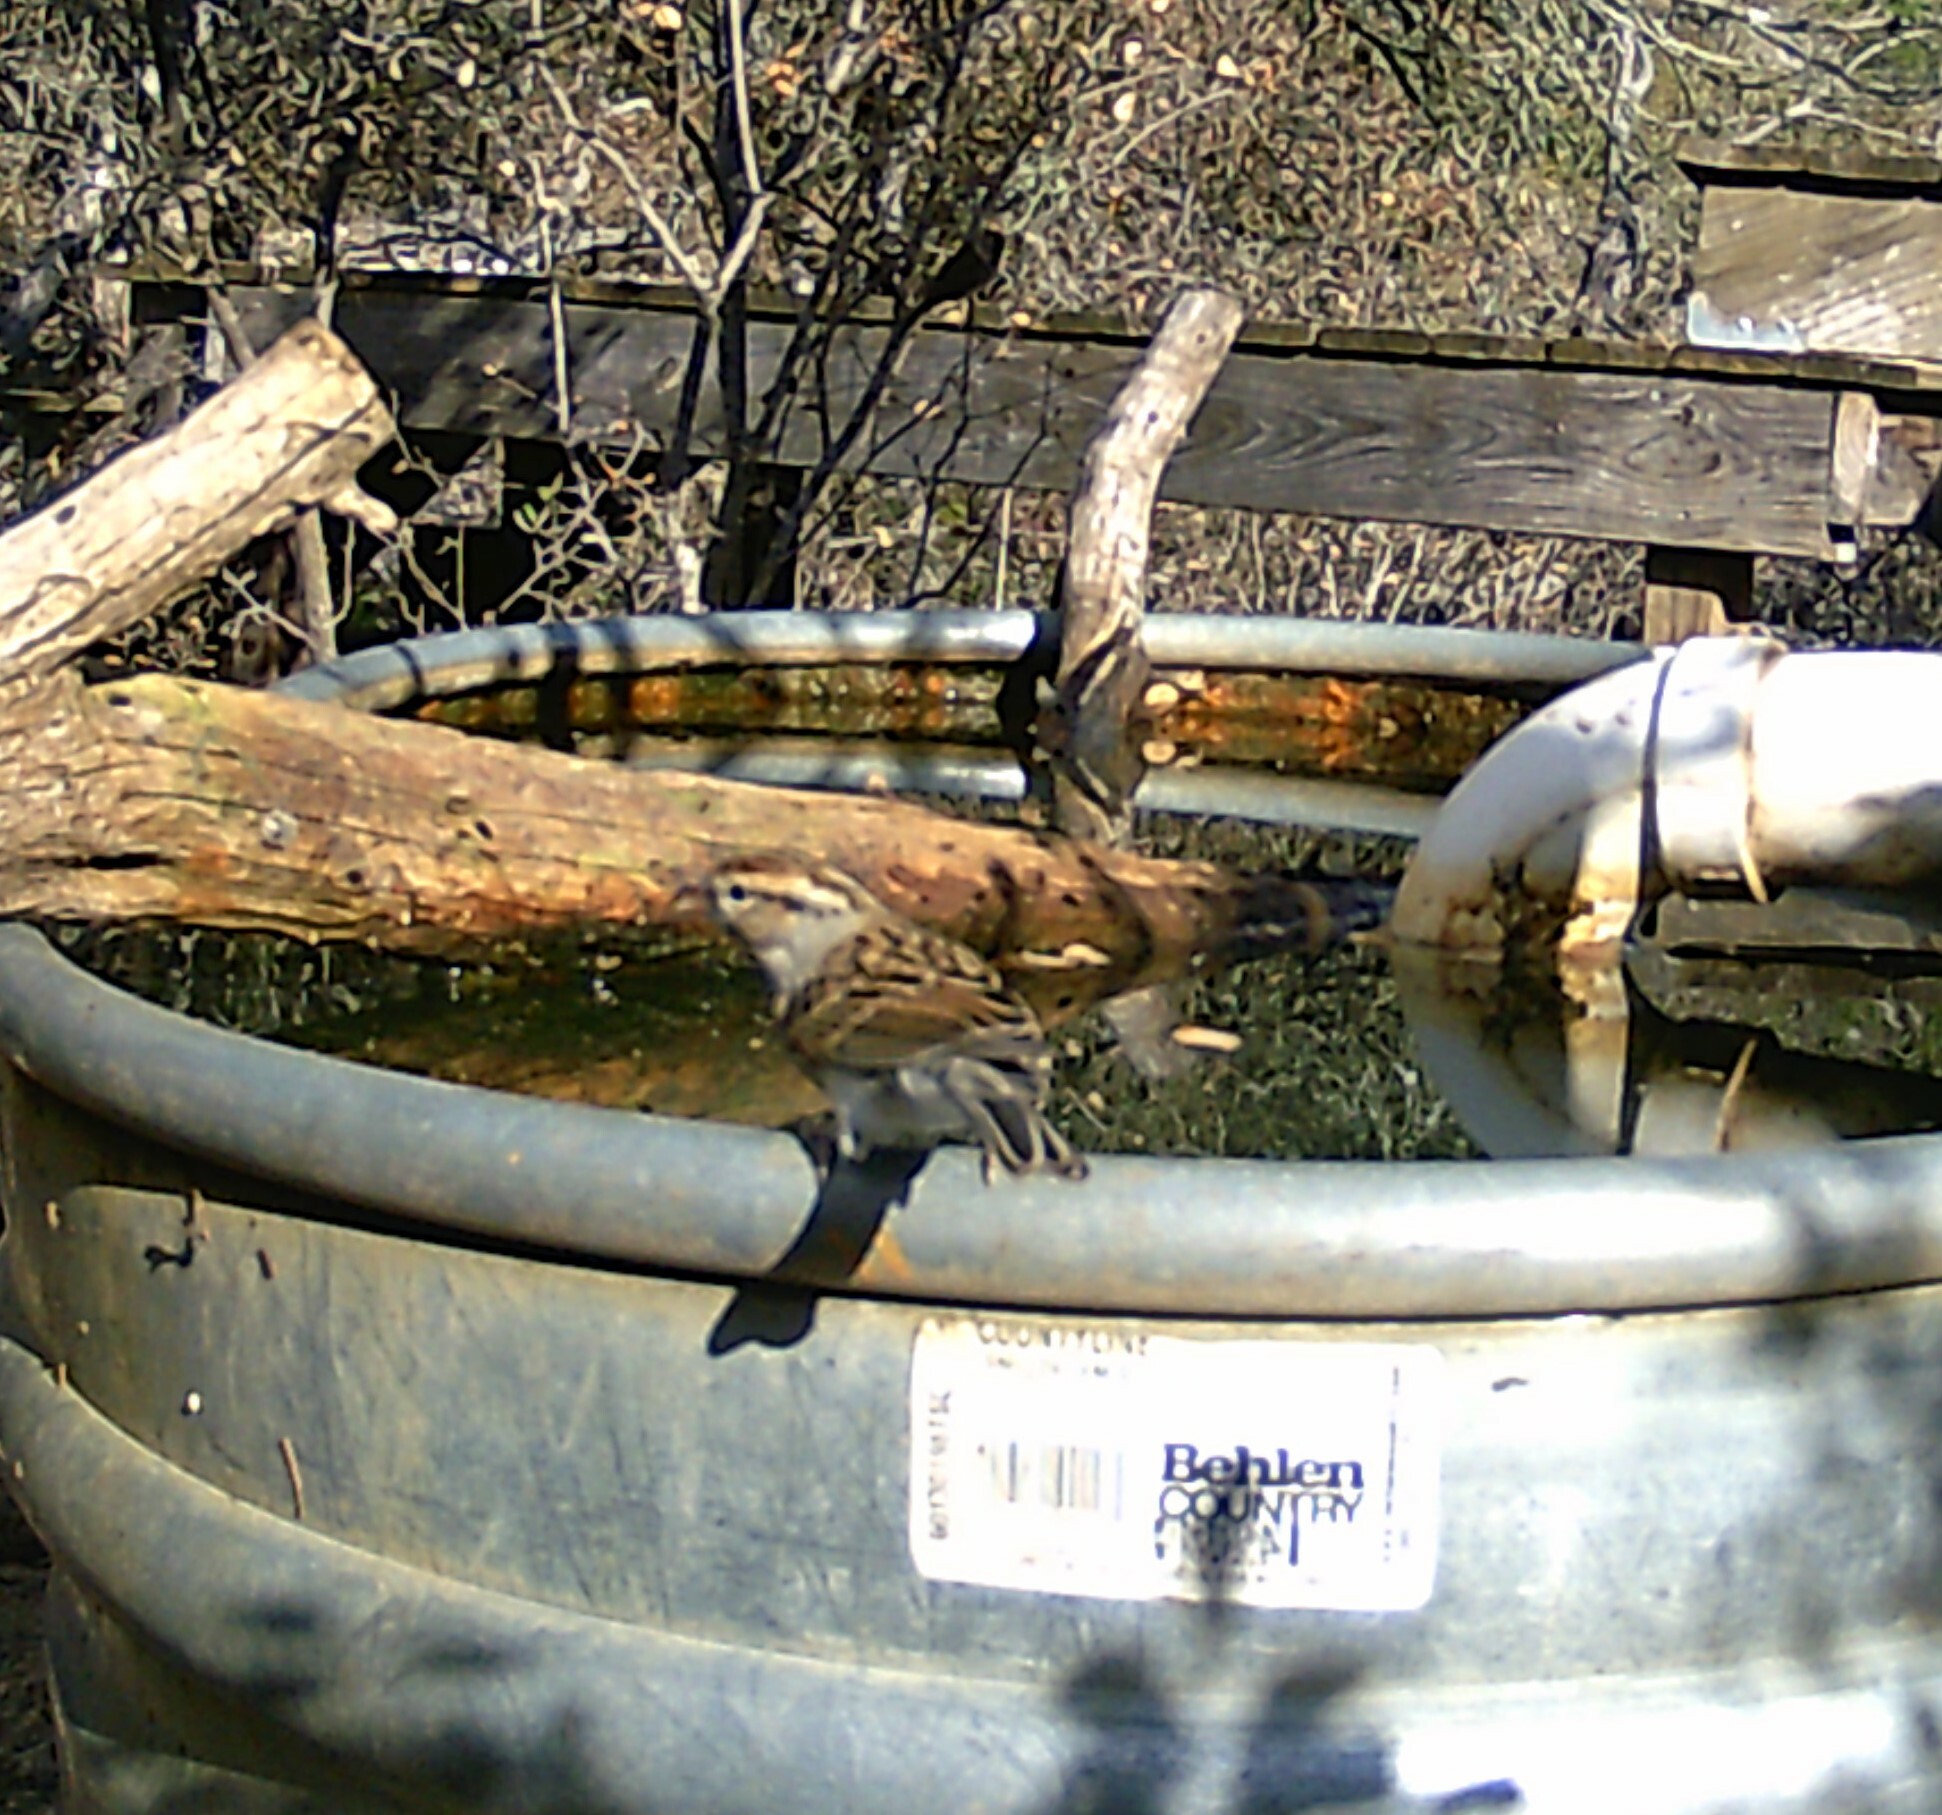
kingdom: Animalia
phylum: Chordata
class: Aves
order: Passeriformes
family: Passerellidae
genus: Spizella
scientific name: Spizella passerina
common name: Chipping sparrow
